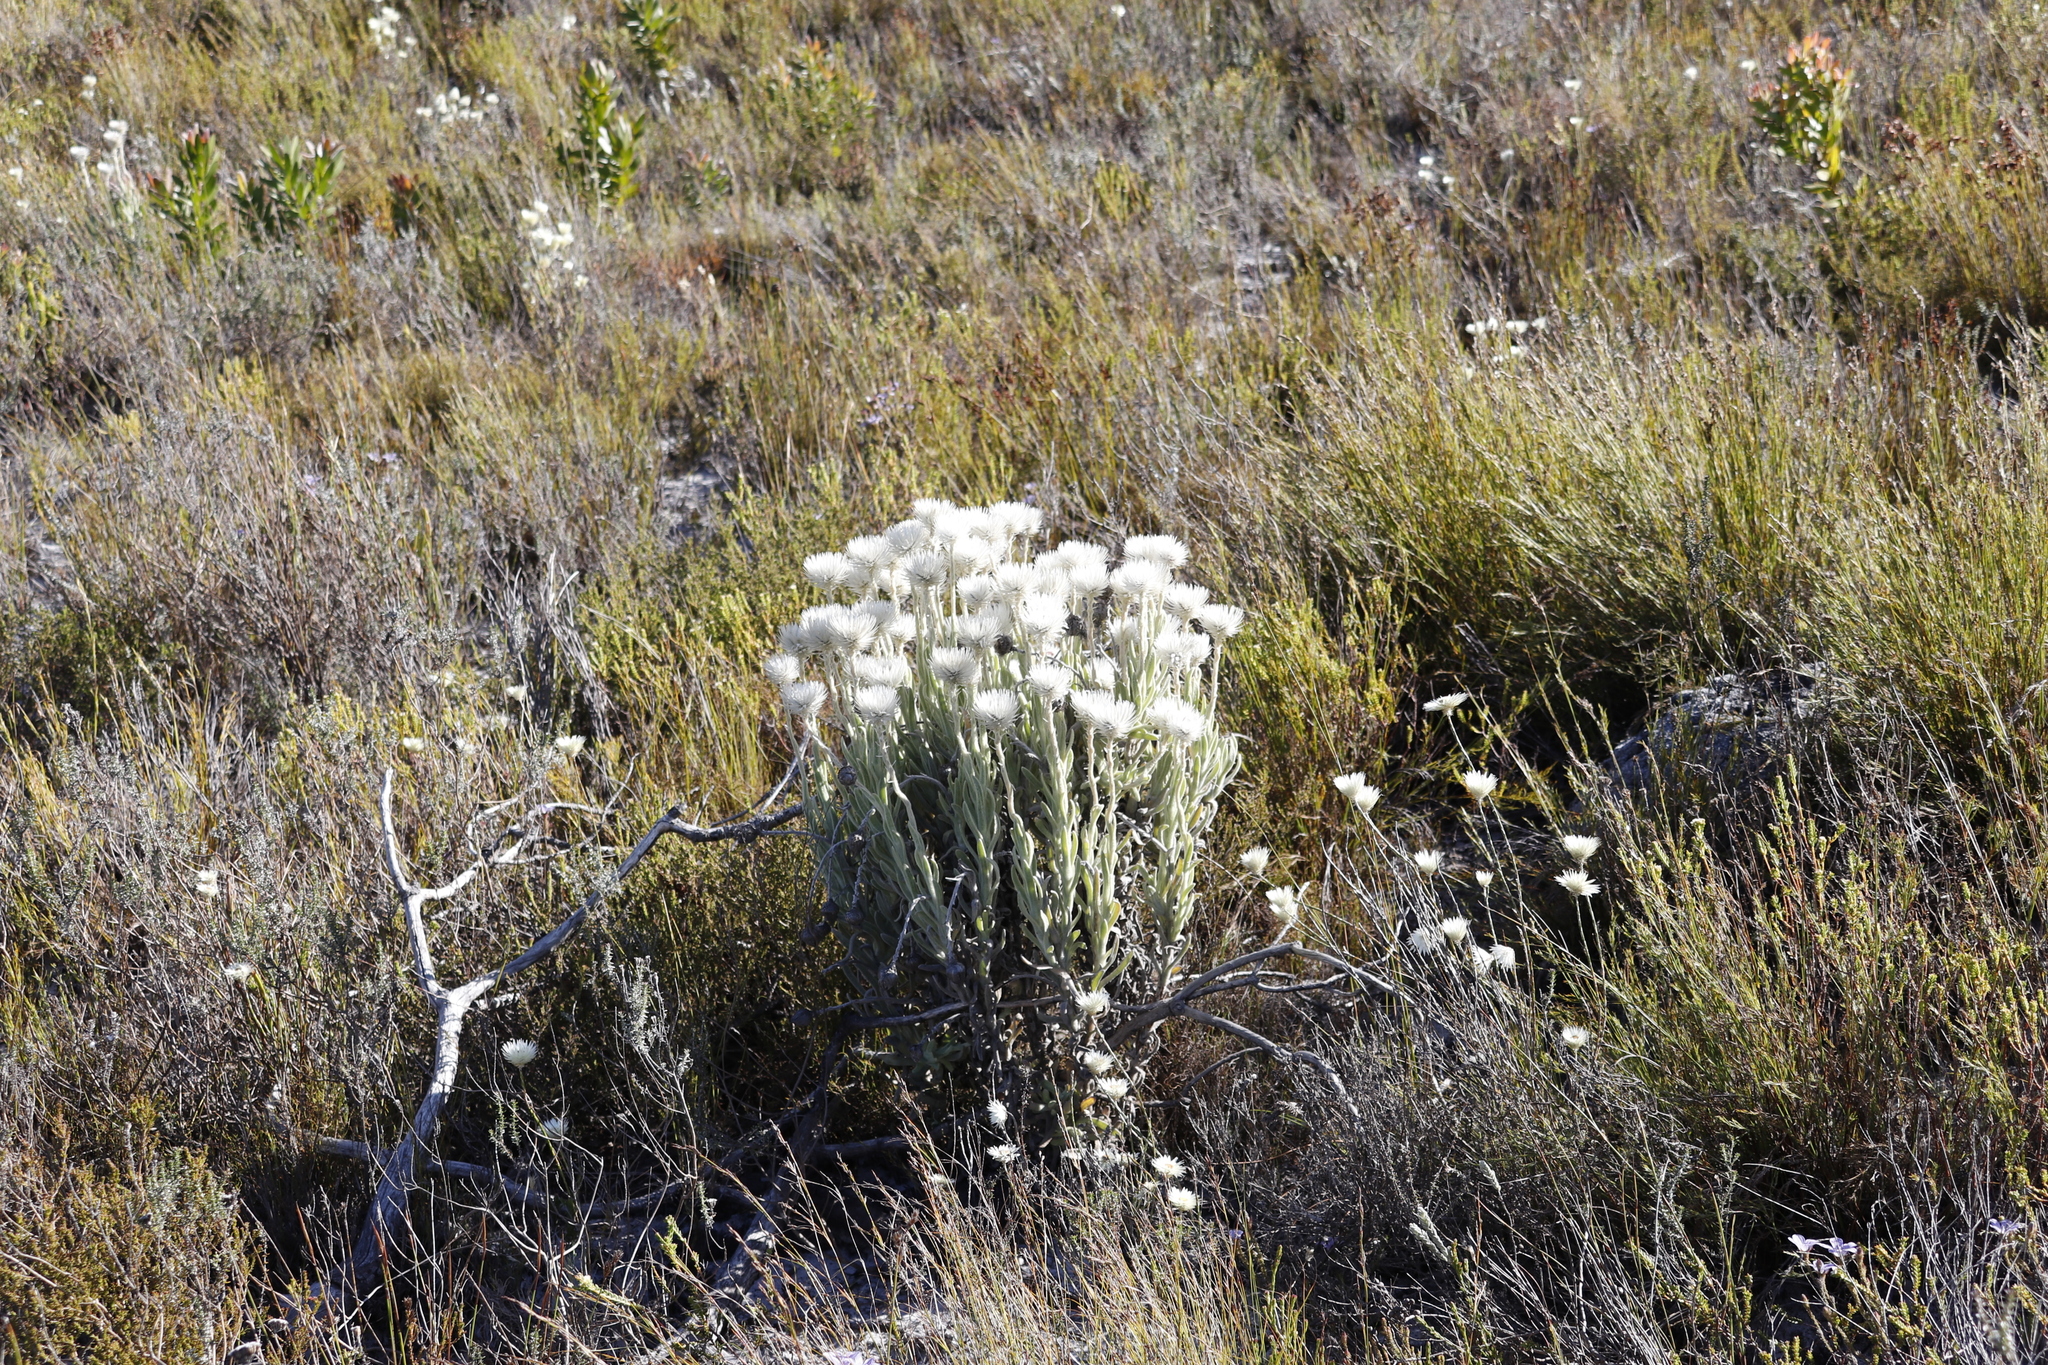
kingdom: Plantae
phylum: Tracheophyta
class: Magnoliopsida
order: Asterales
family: Asteraceae
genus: Syncarpha
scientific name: Syncarpha vestita
